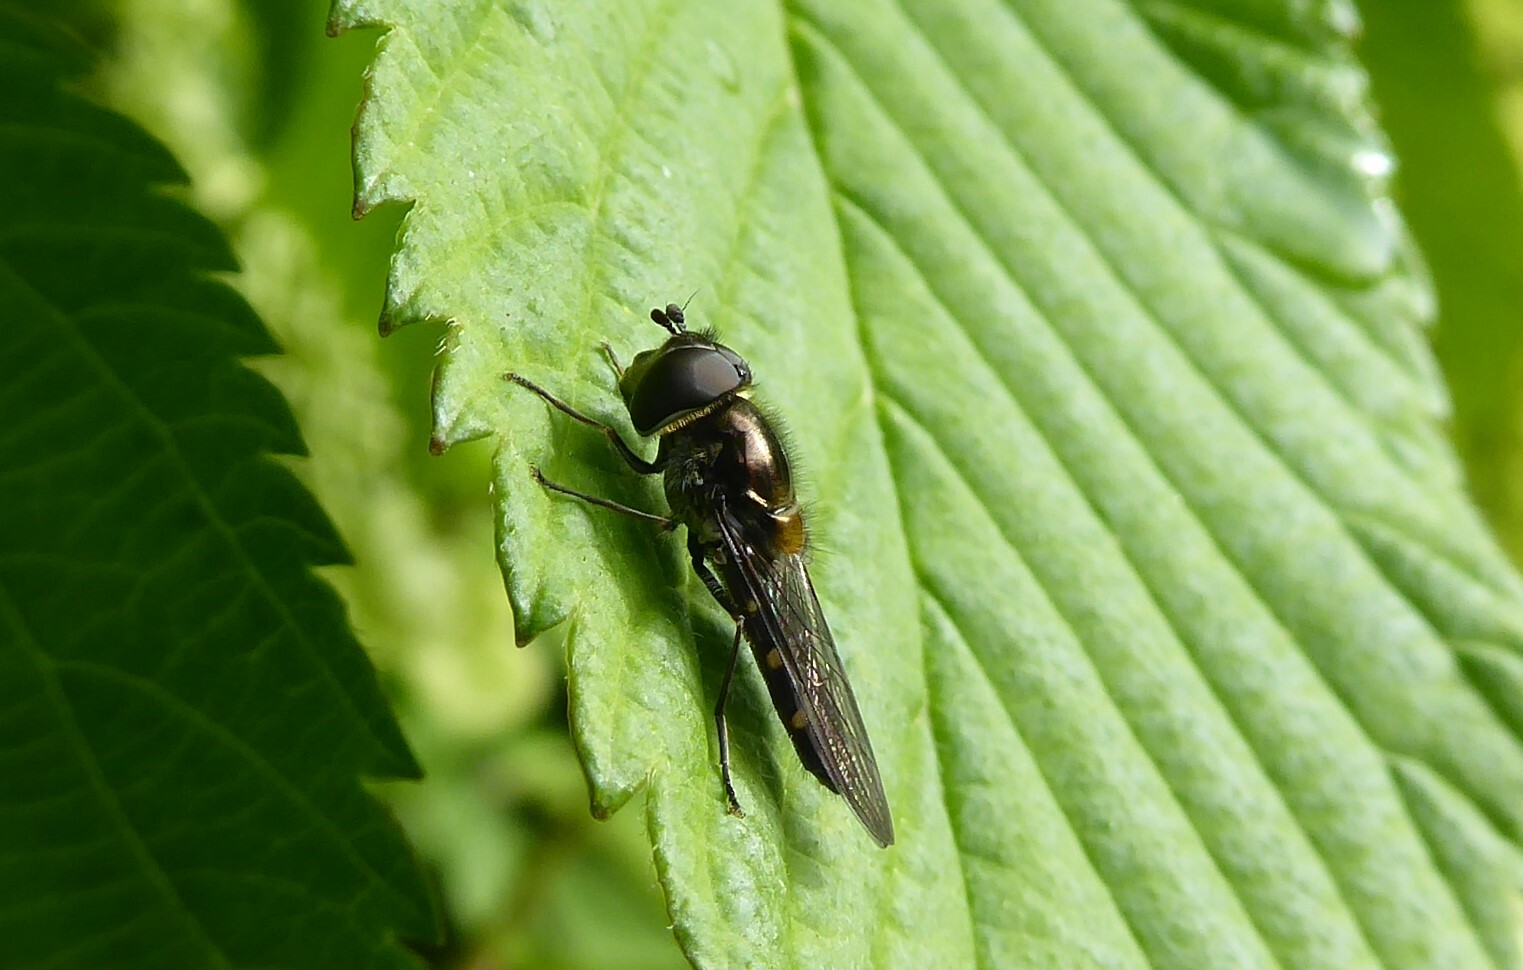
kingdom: Animalia
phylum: Arthropoda
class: Insecta
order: Diptera
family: Syrphidae
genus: Melangyna
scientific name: Melangyna novaezelandiae
